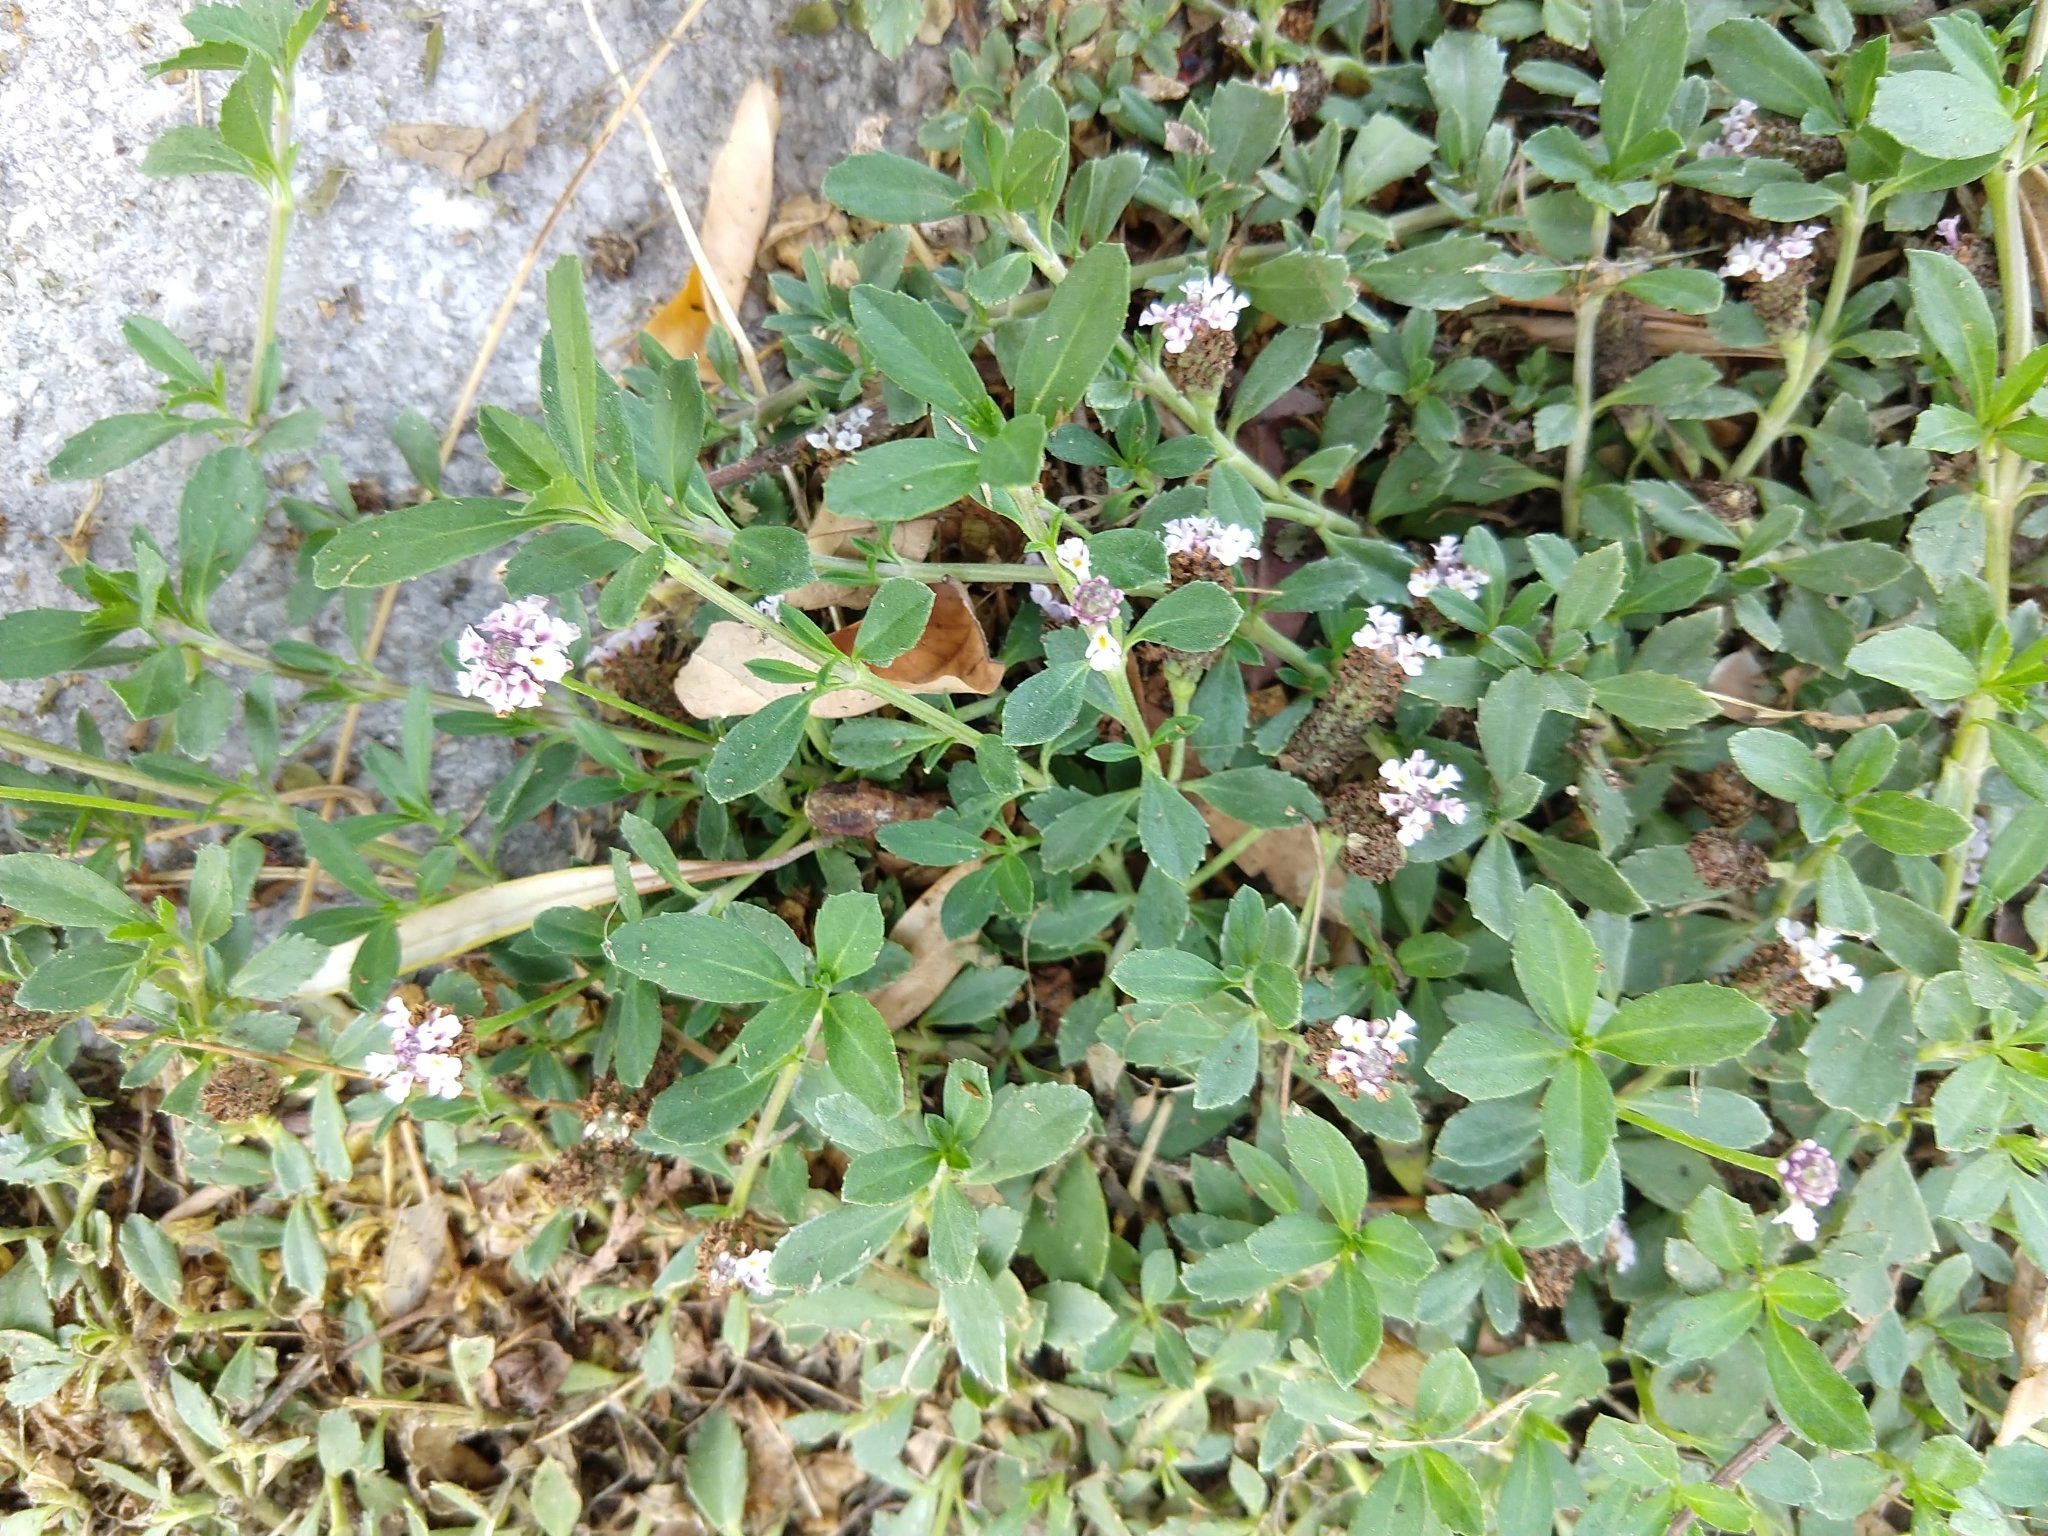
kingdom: Plantae
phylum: Tracheophyta
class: Magnoliopsida
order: Lamiales
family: Verbenaceae
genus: Phyla
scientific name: Phyla nodiflora
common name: Frogfruit
